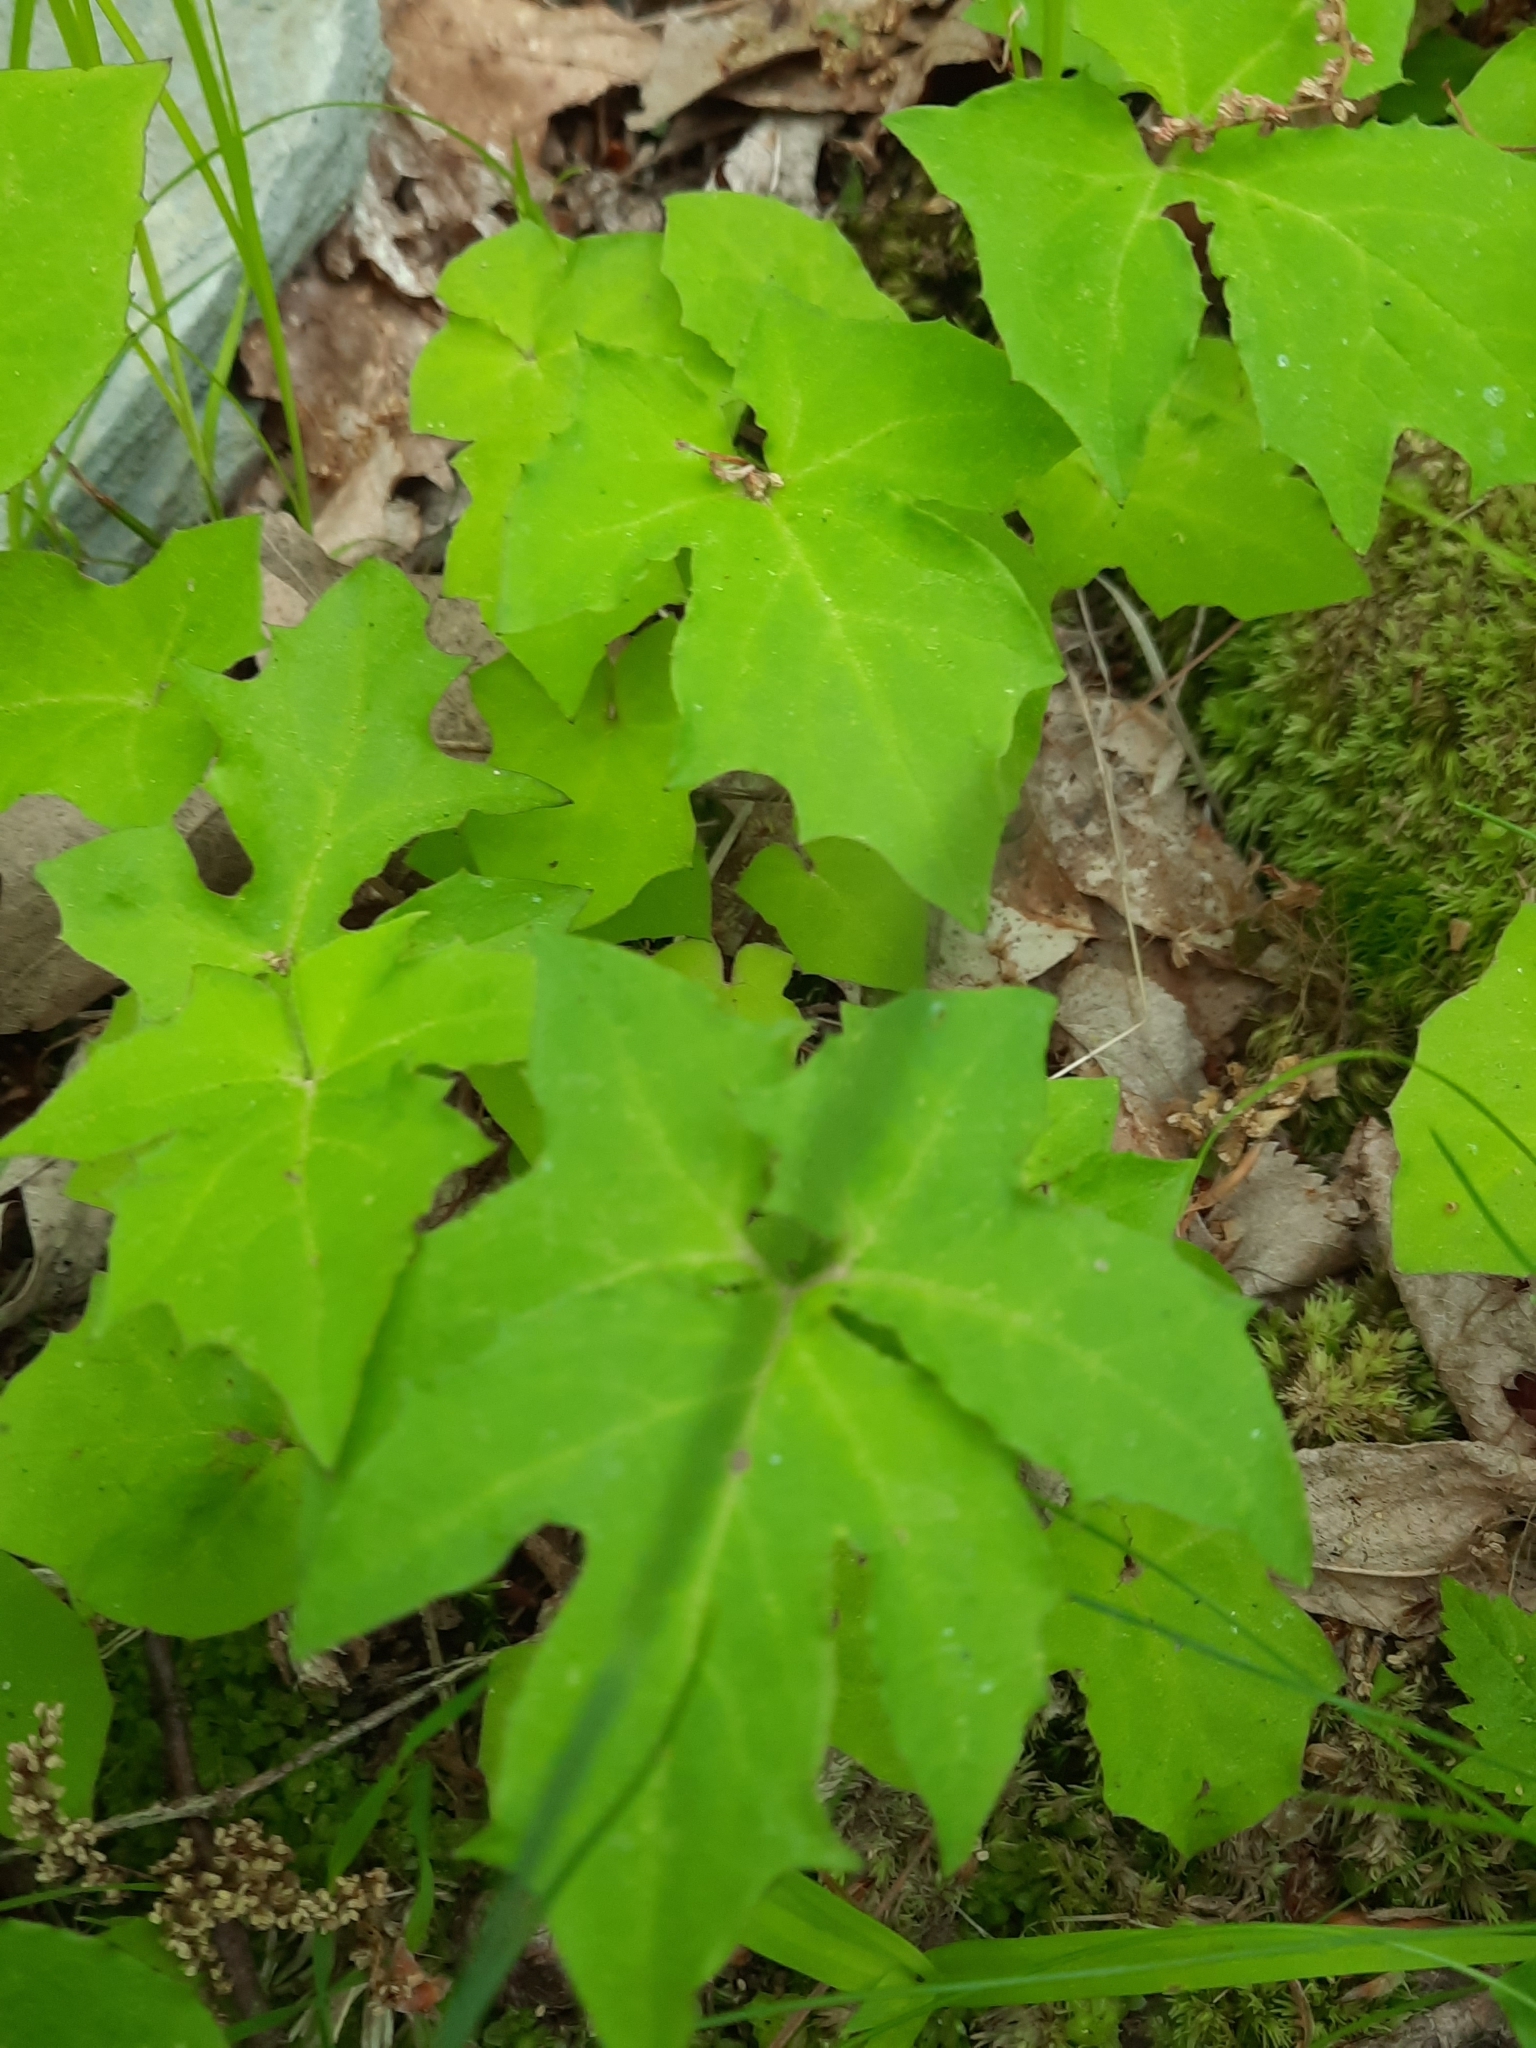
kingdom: Plantae
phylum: Tracheophyta
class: Magnoliopsida
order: Asterales
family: Asteraceae
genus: Nabalus
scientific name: Nabalus
